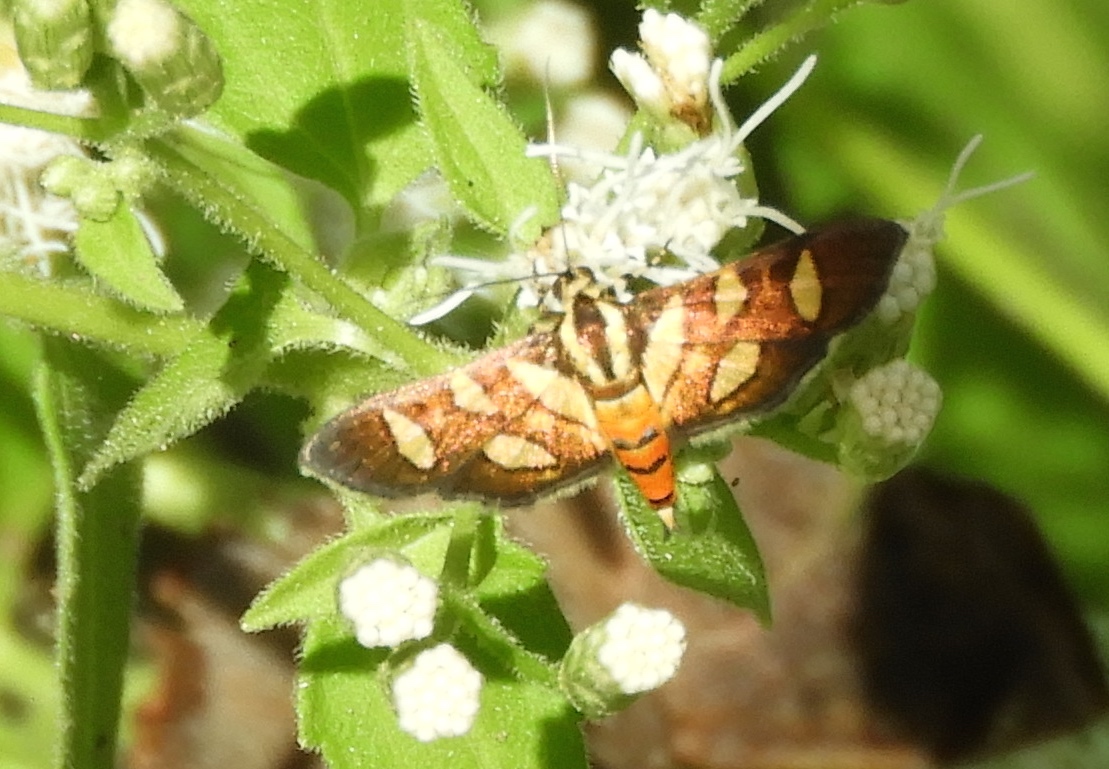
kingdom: Animalia
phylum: Arthropoda
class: Insecta
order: Lepidoptera
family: Crambidae
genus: Syngamia
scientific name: Syngamia florella
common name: Orange-spotted flower moth
